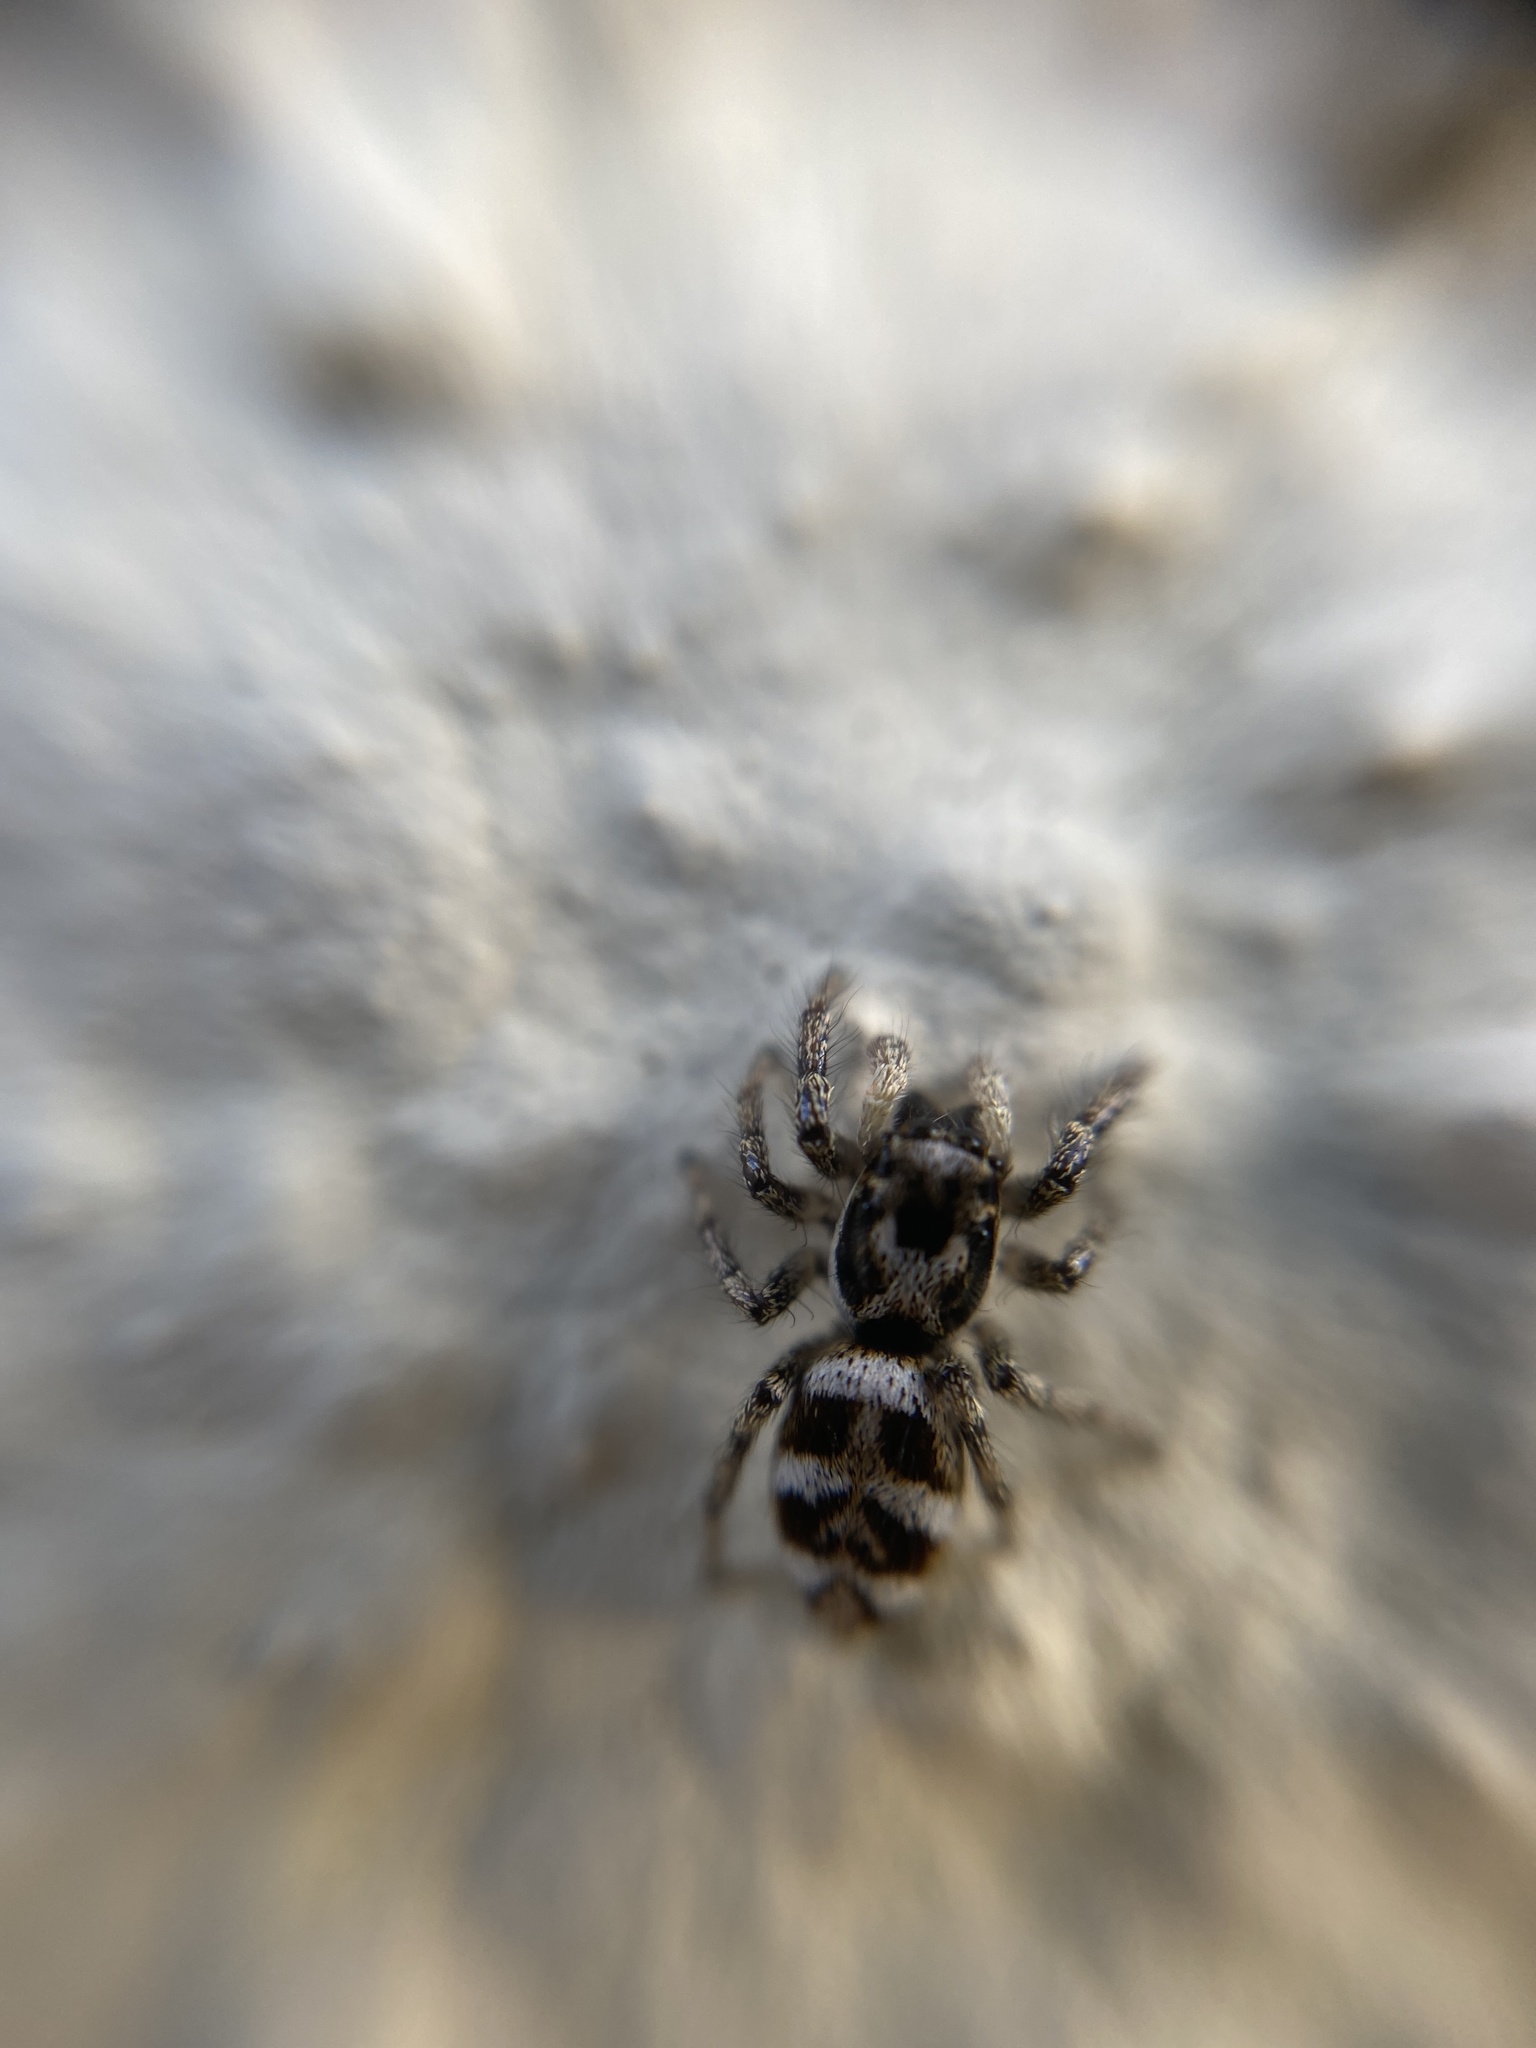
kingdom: Animalia
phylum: Arthropoda
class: Arachnida
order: Araneae
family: Salticidae
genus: Salticus
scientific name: Salticus scenicus
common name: Zebra jumper
